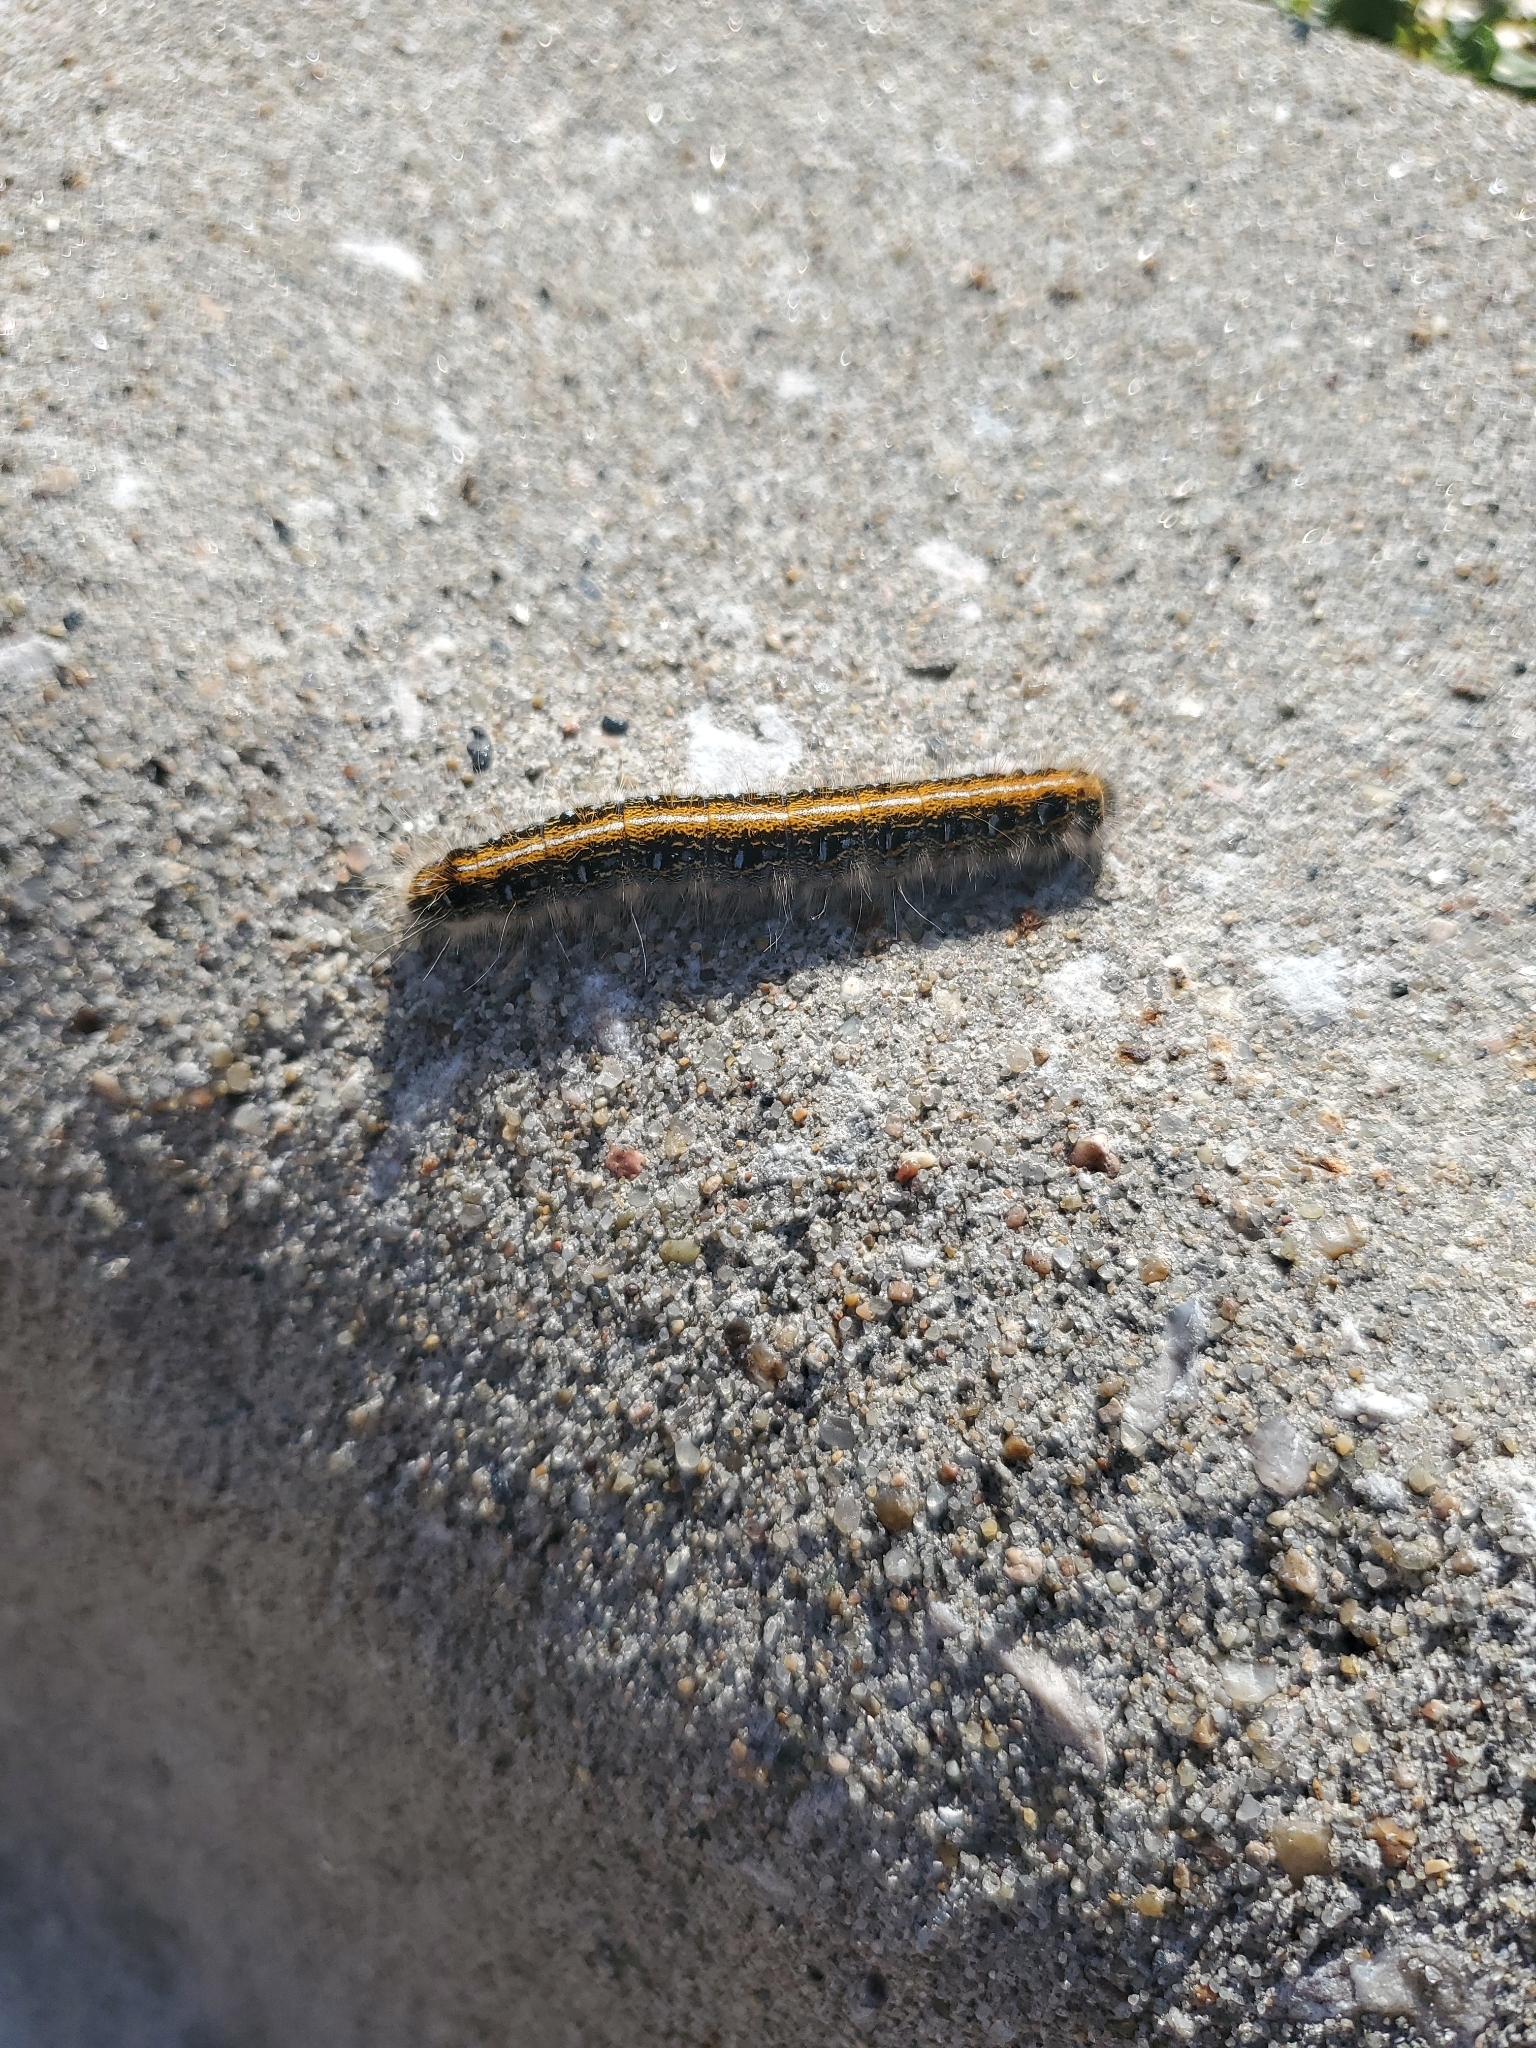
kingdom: Animalia
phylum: Arthropoda
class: Insecta
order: Lepidoptera
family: Lasiocampidae
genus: Malacosoma
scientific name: Malacosoma americana
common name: Eastern tent caterpillar moth
